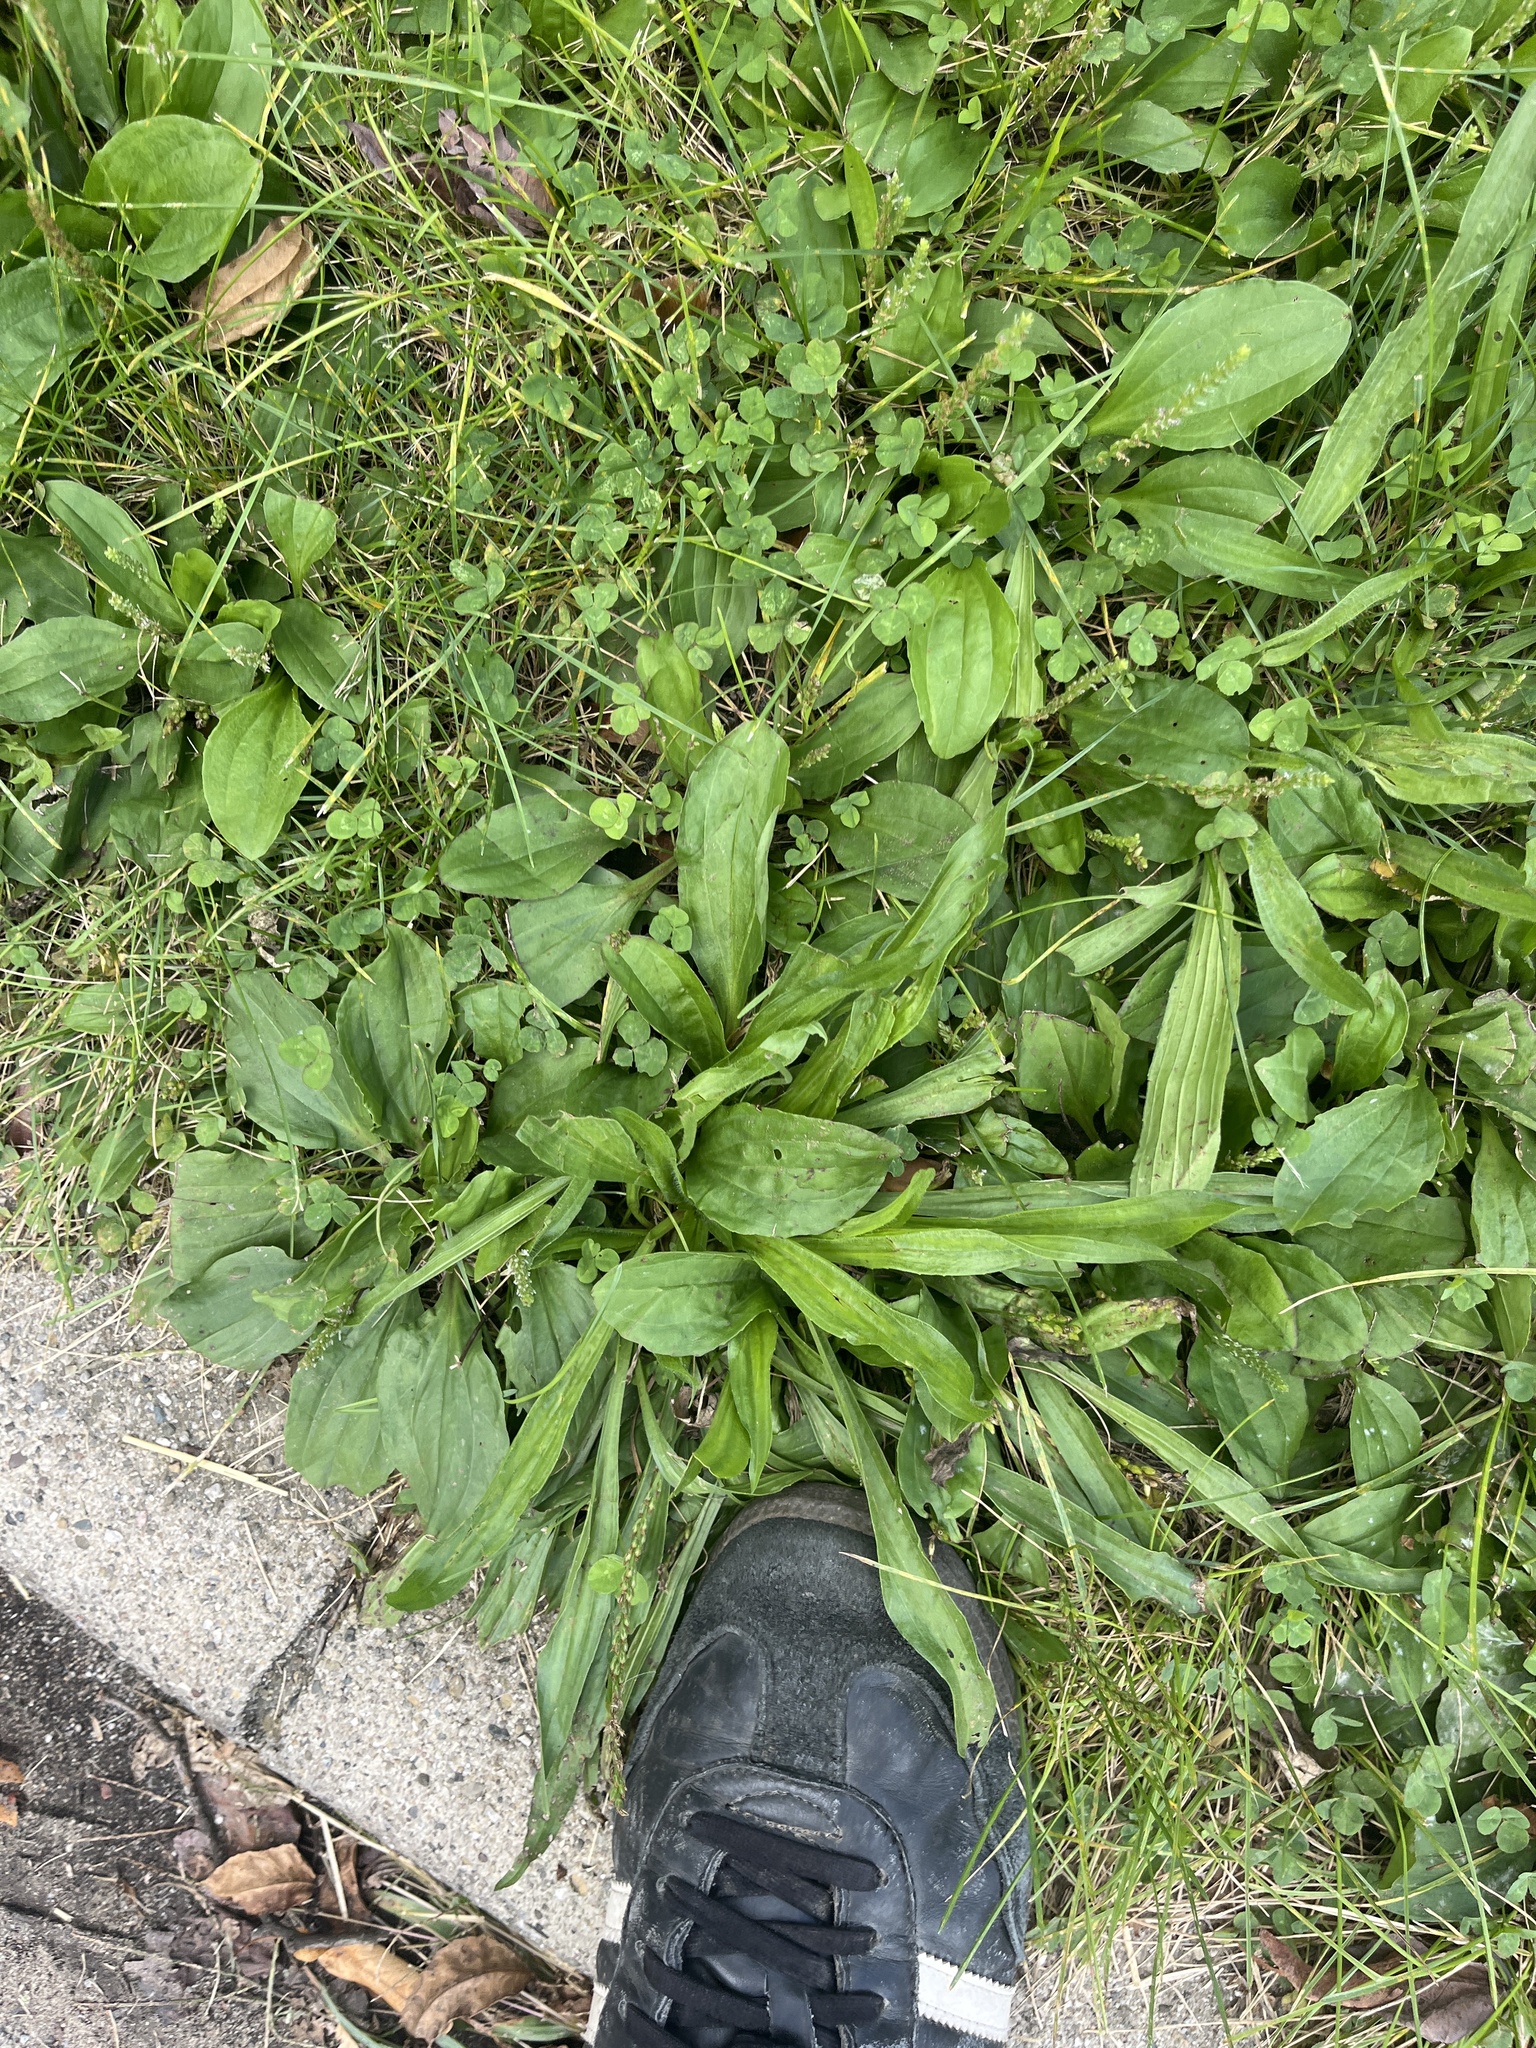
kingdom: Plantae
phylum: Tracheophyta
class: Magnoliopsida
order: Lamiales
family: Plantaginaceae
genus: Plantago
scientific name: Plantago lanceolata
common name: Ribwort plantain
